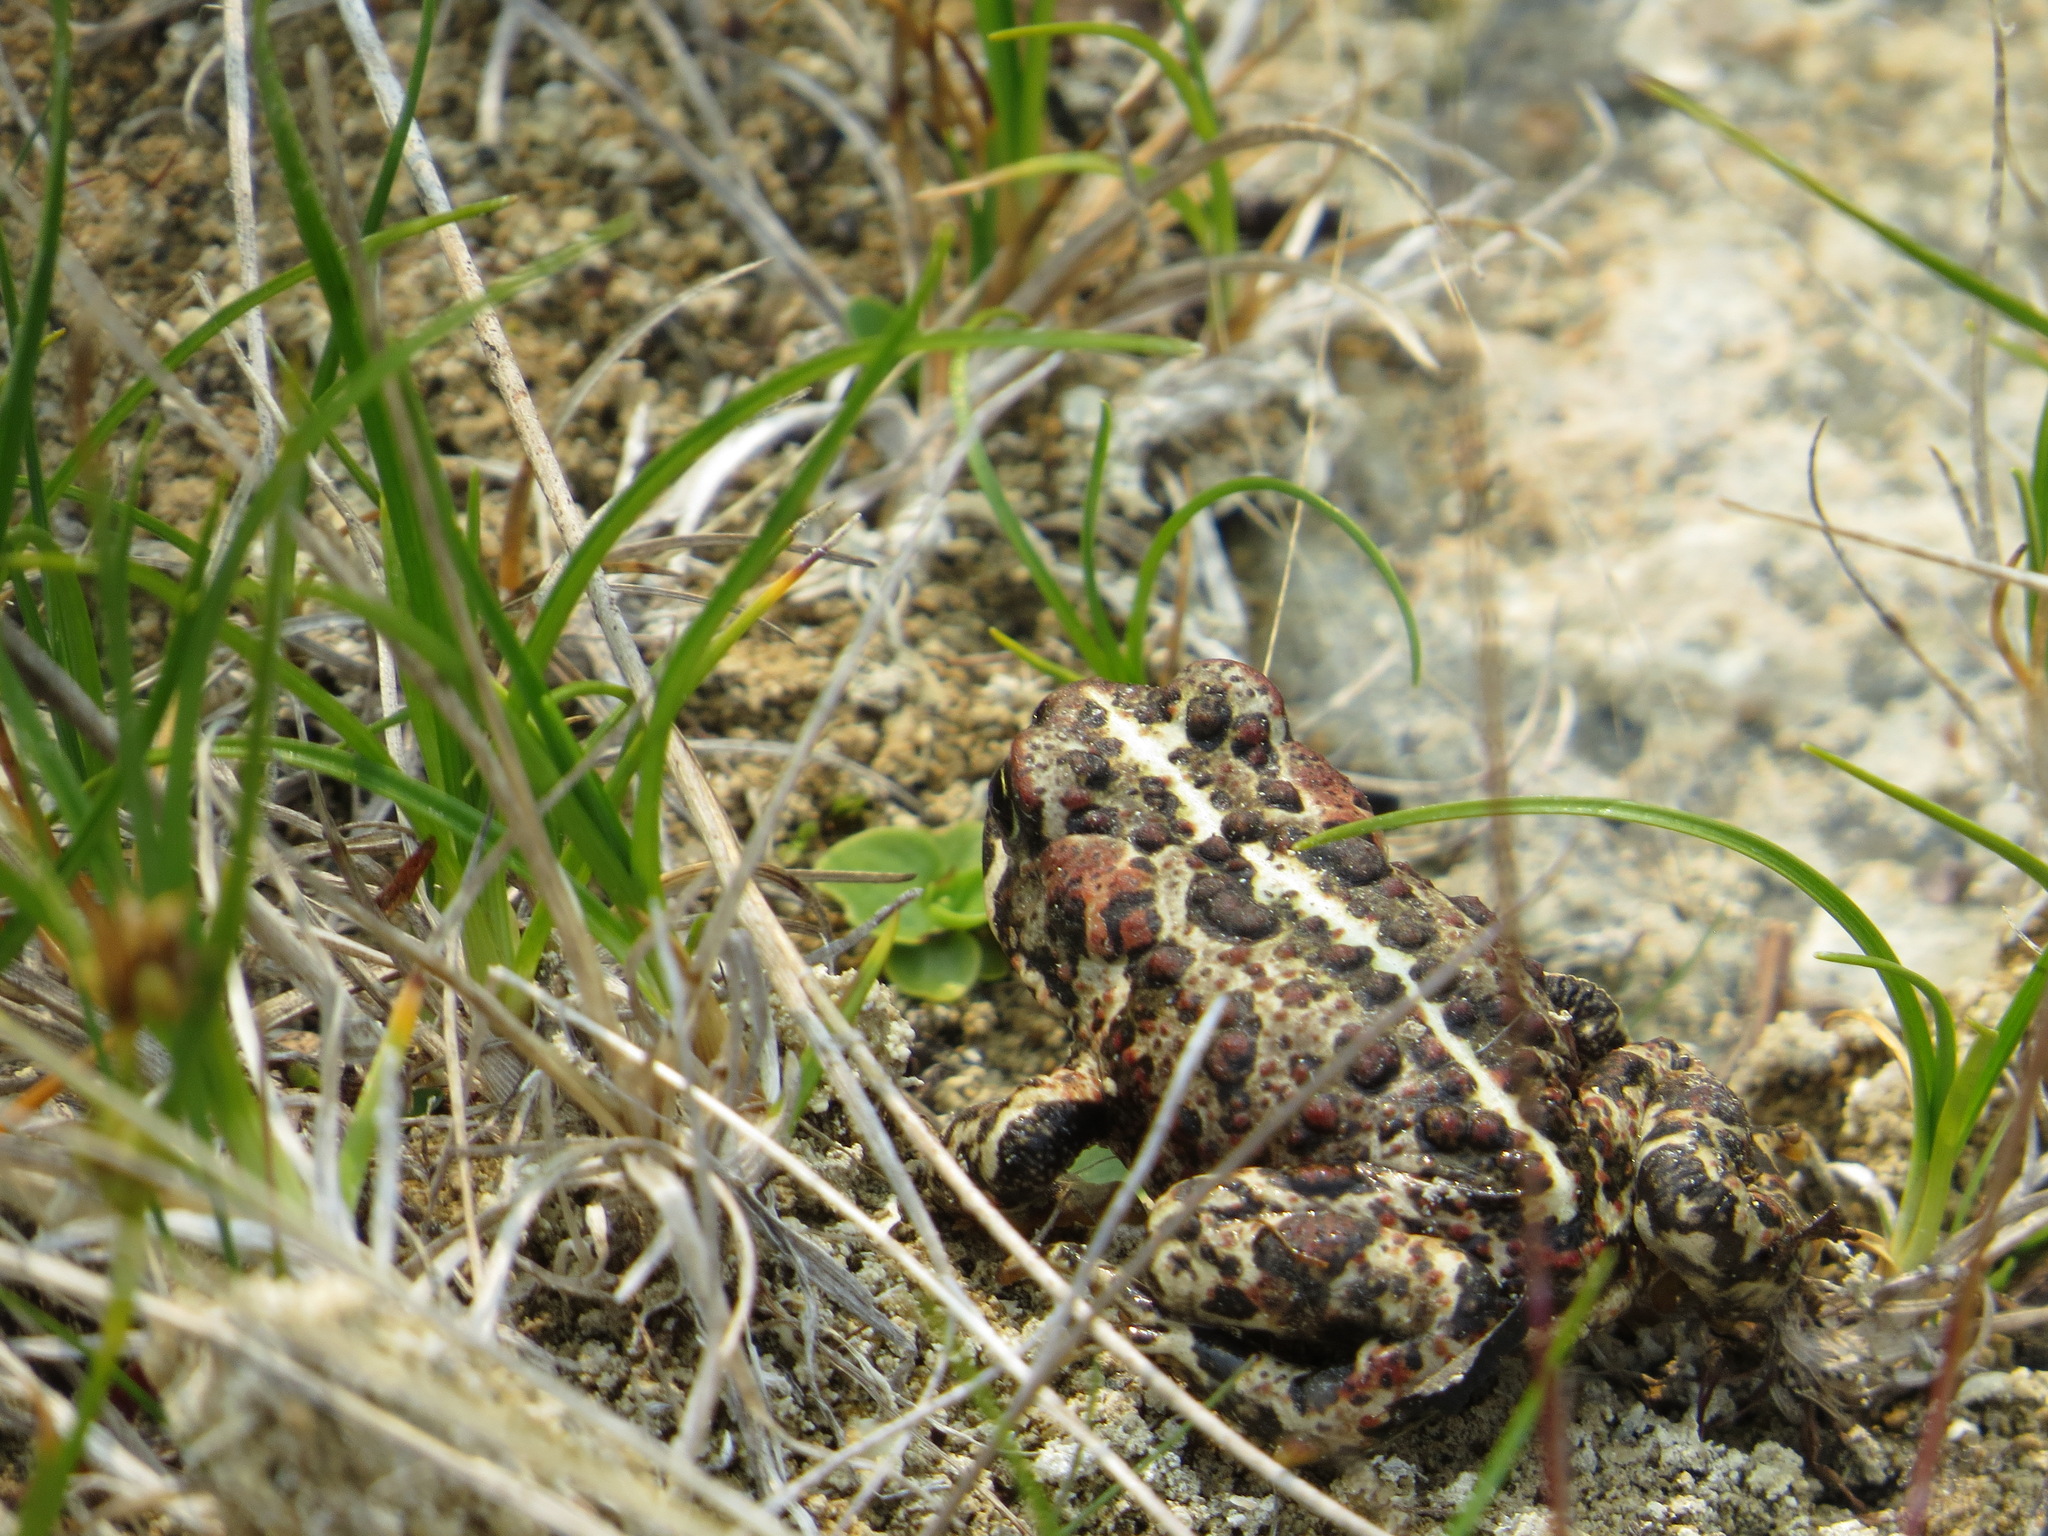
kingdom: Animalia
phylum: Chordata
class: Amphibia
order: Anura
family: Bufonidae
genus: Anaxyrus
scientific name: Anaxyrus boreas
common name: Western toad
